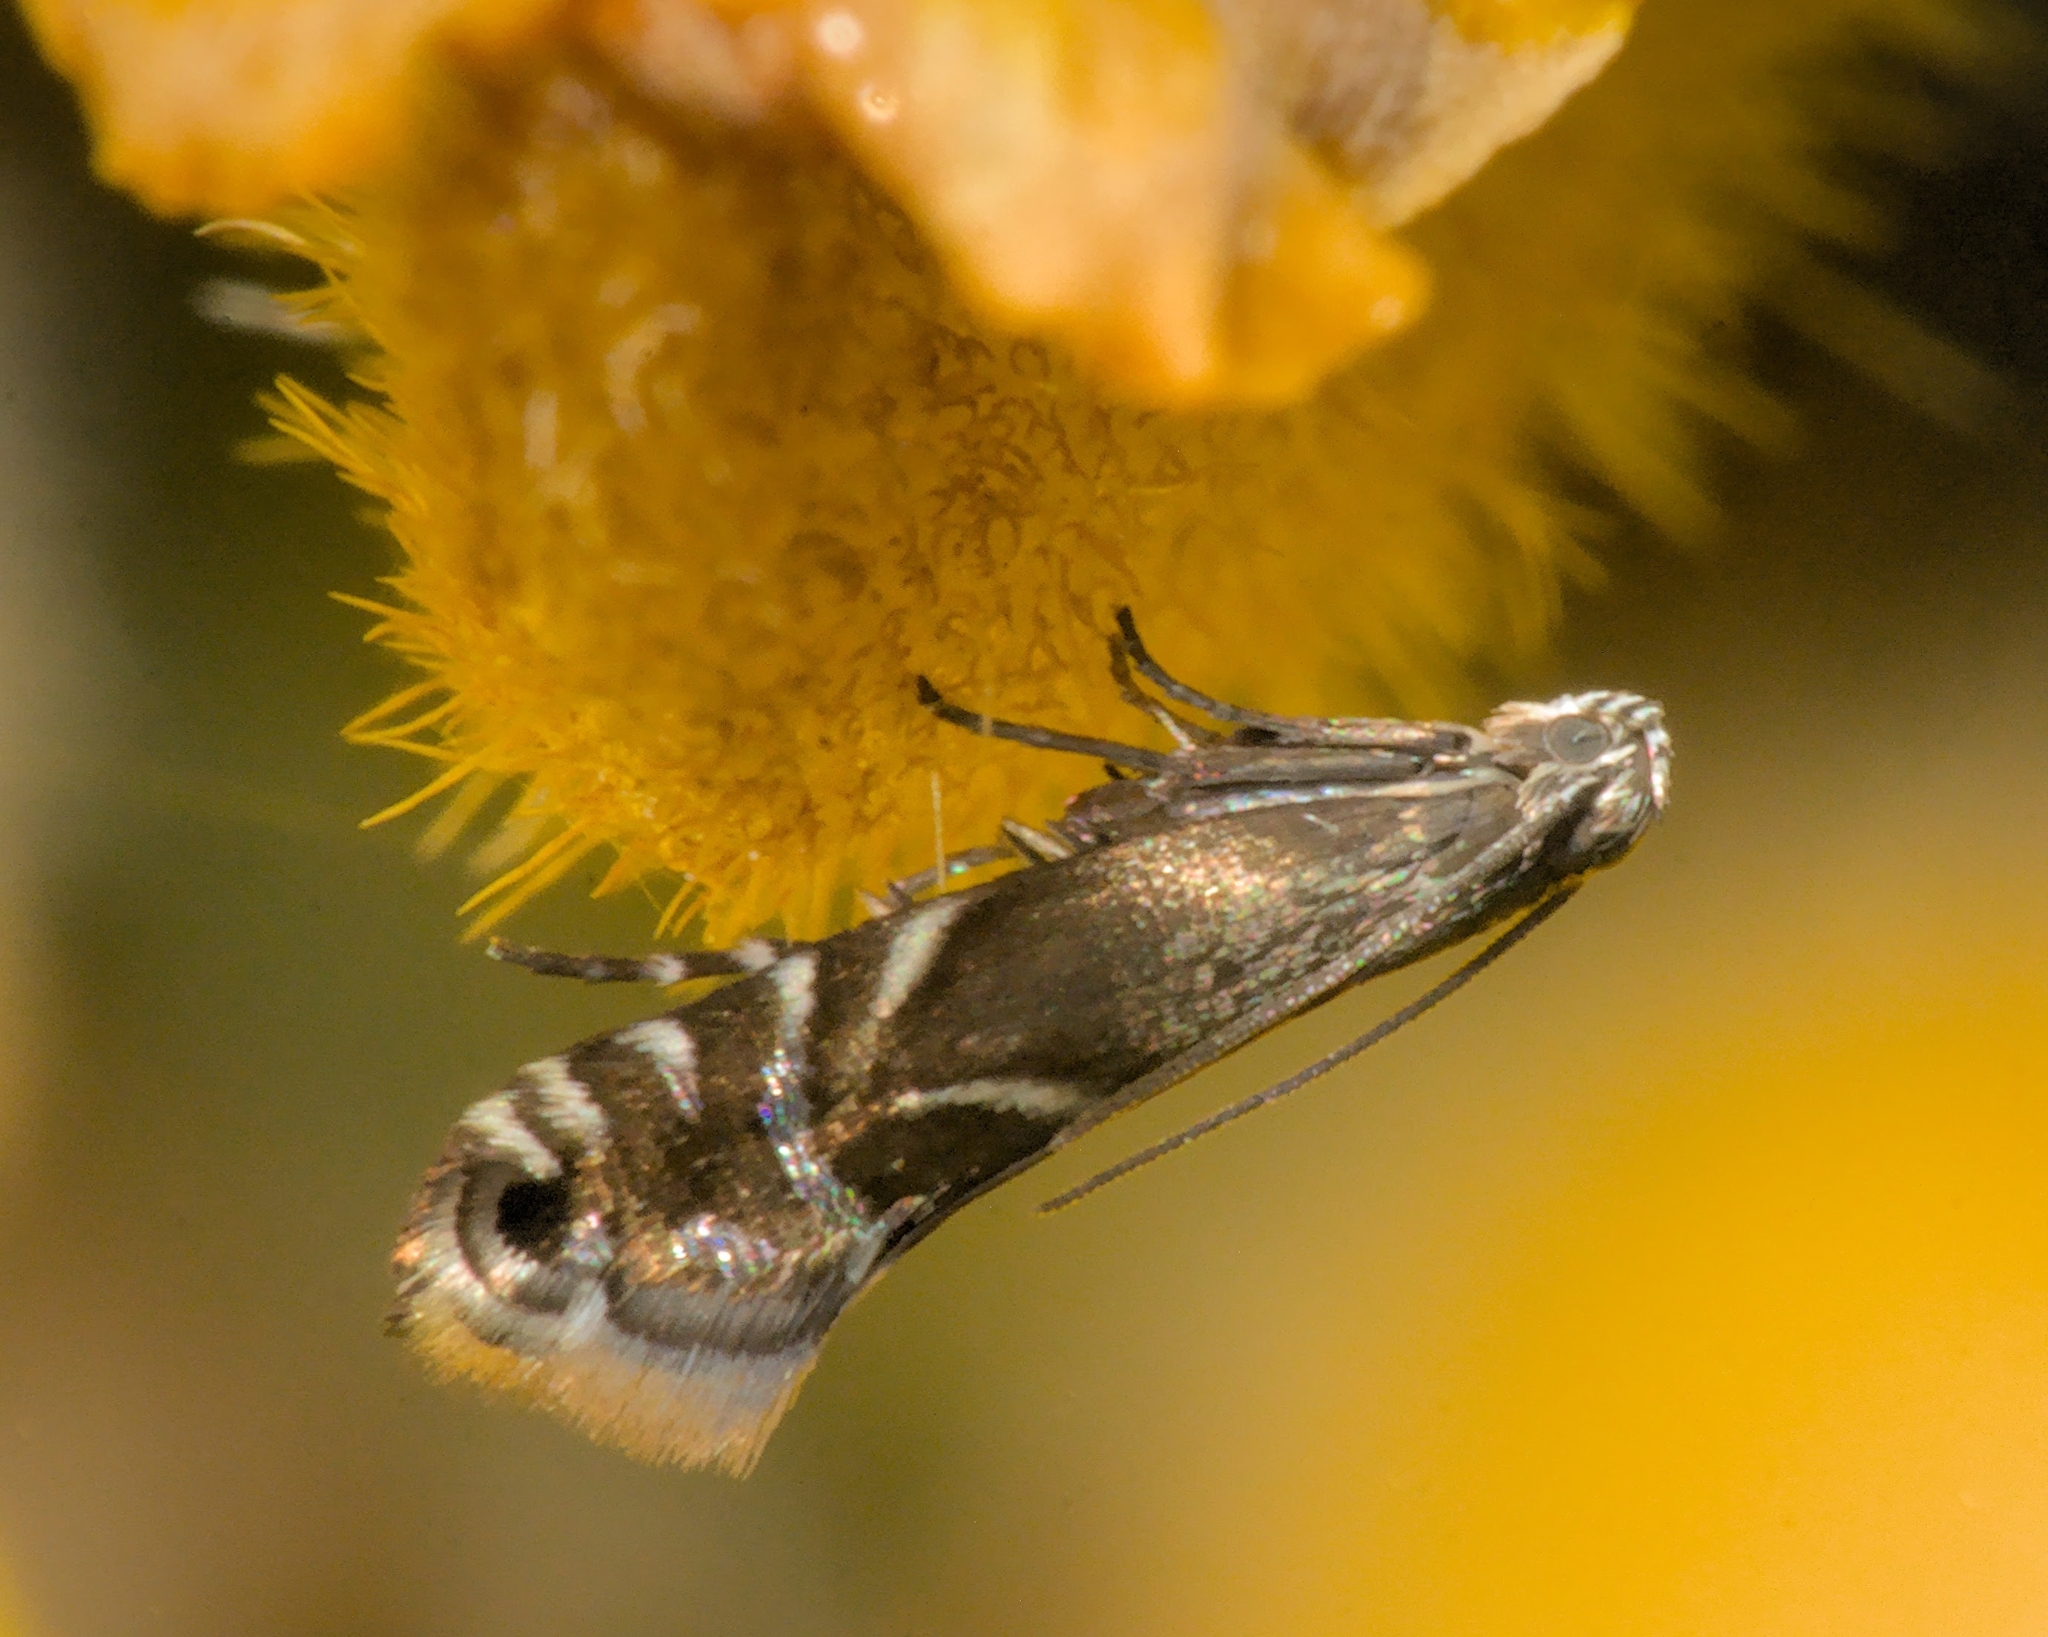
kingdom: Animalia
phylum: Arthropoda
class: Insecta
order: Lepidoptera
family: Glyphipterigidae
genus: Glyphipterix
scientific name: Glyphipterix simpliciella
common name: Cocksfoot moth
